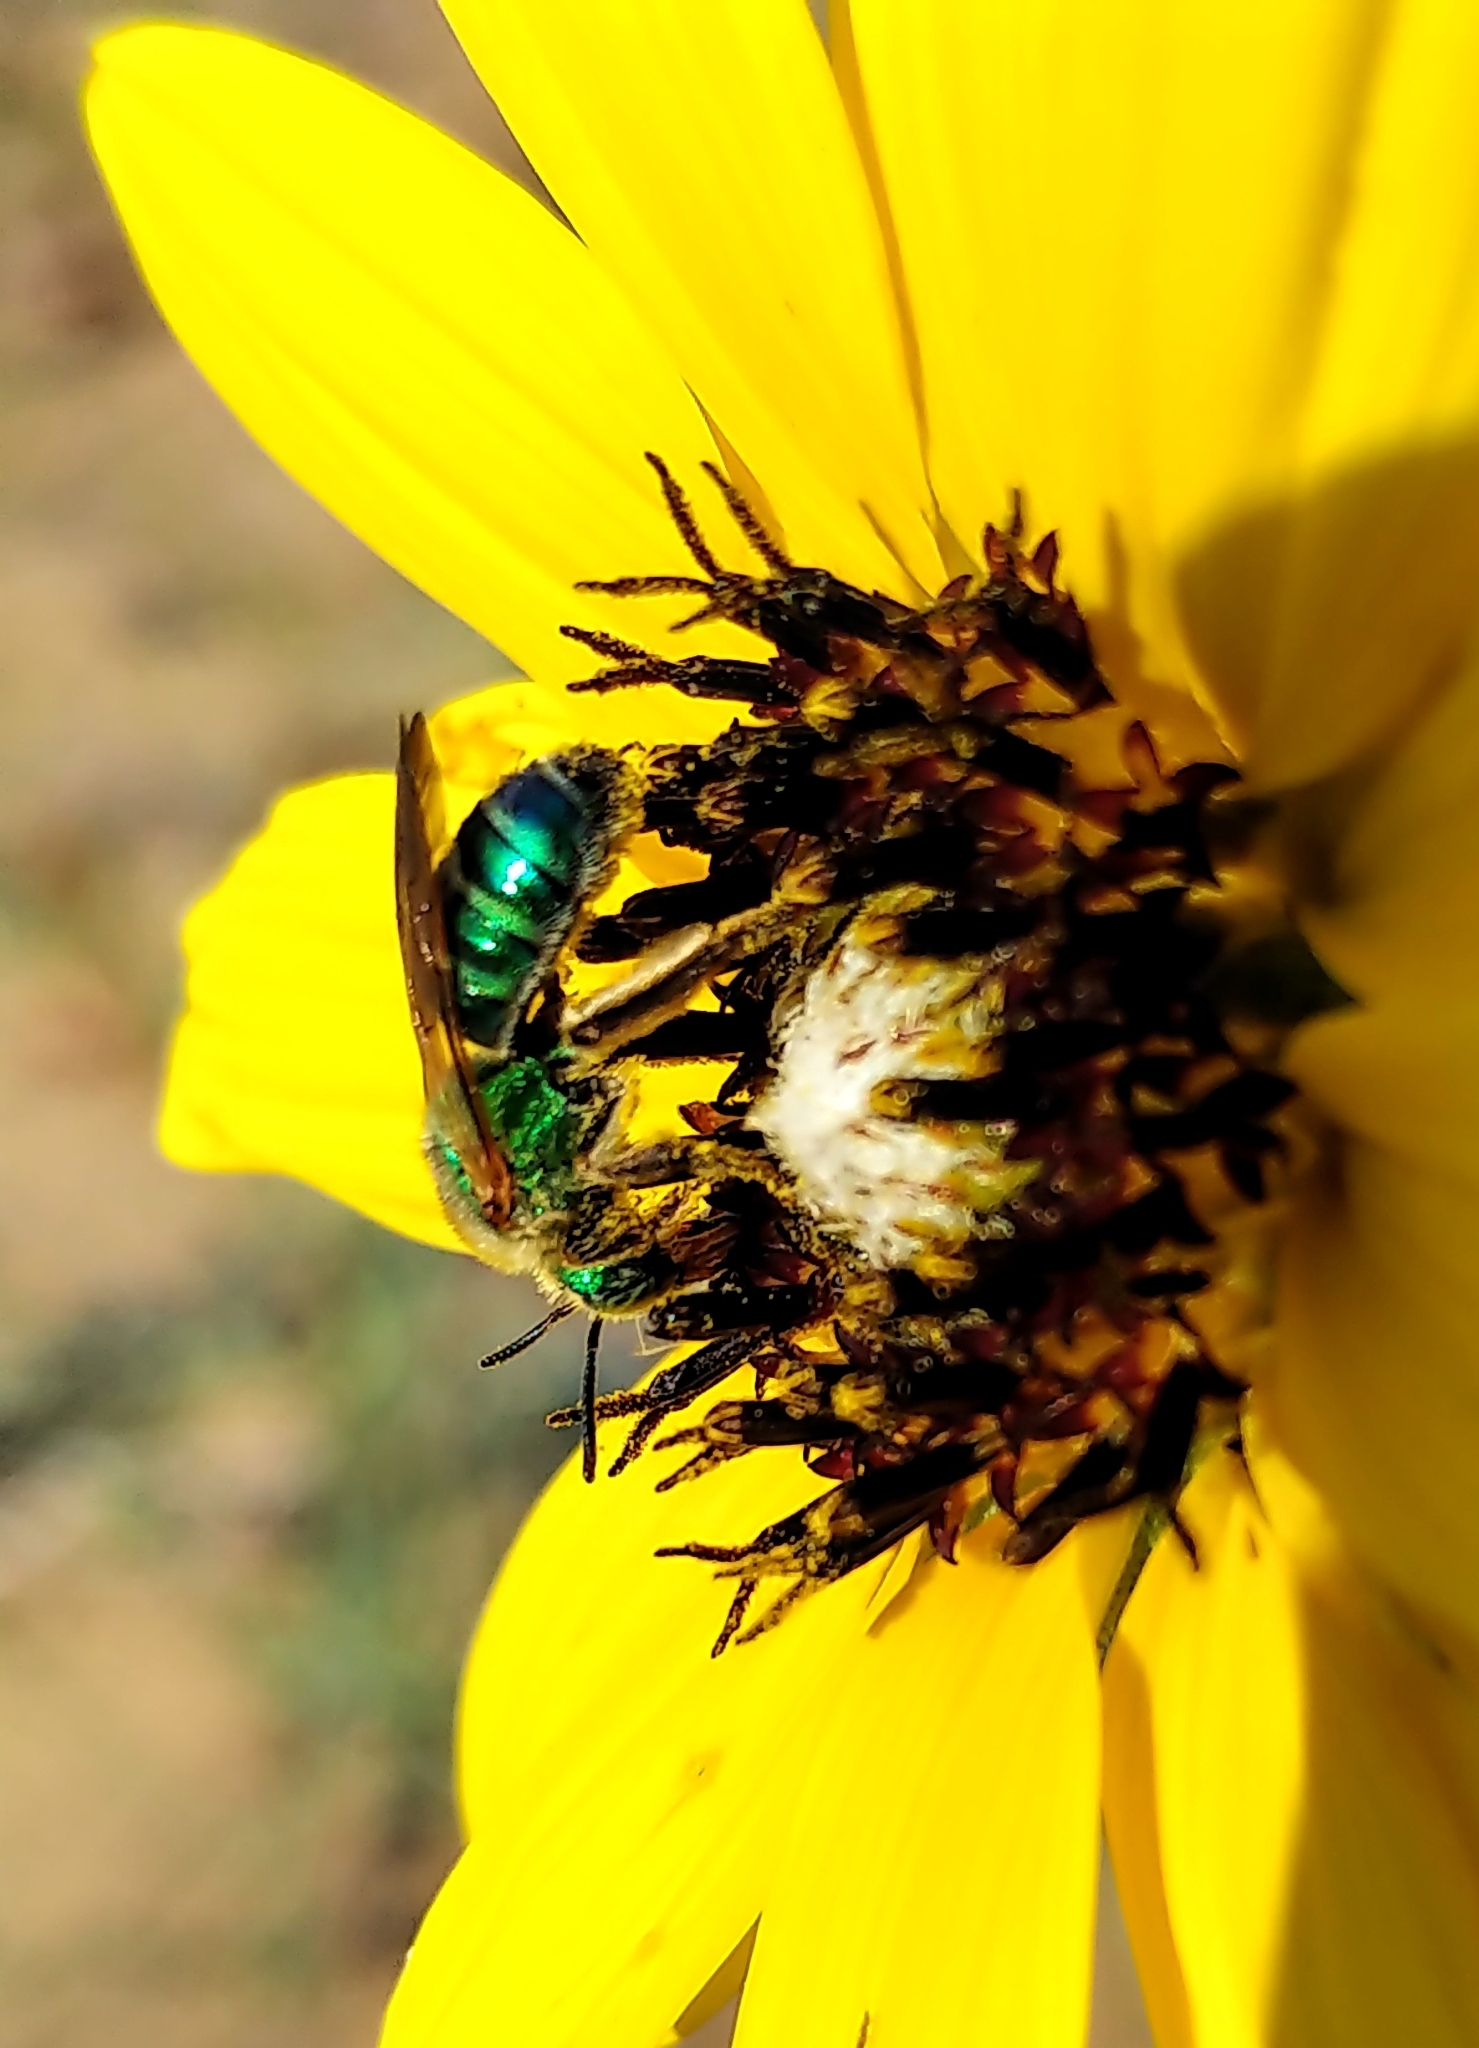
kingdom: Animalia
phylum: Arthropoda
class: Insecta
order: Hymenoptera
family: Halictidae
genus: Agapostemon
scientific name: Agapostemon splendens
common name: Brown-winged striped sweat bee
